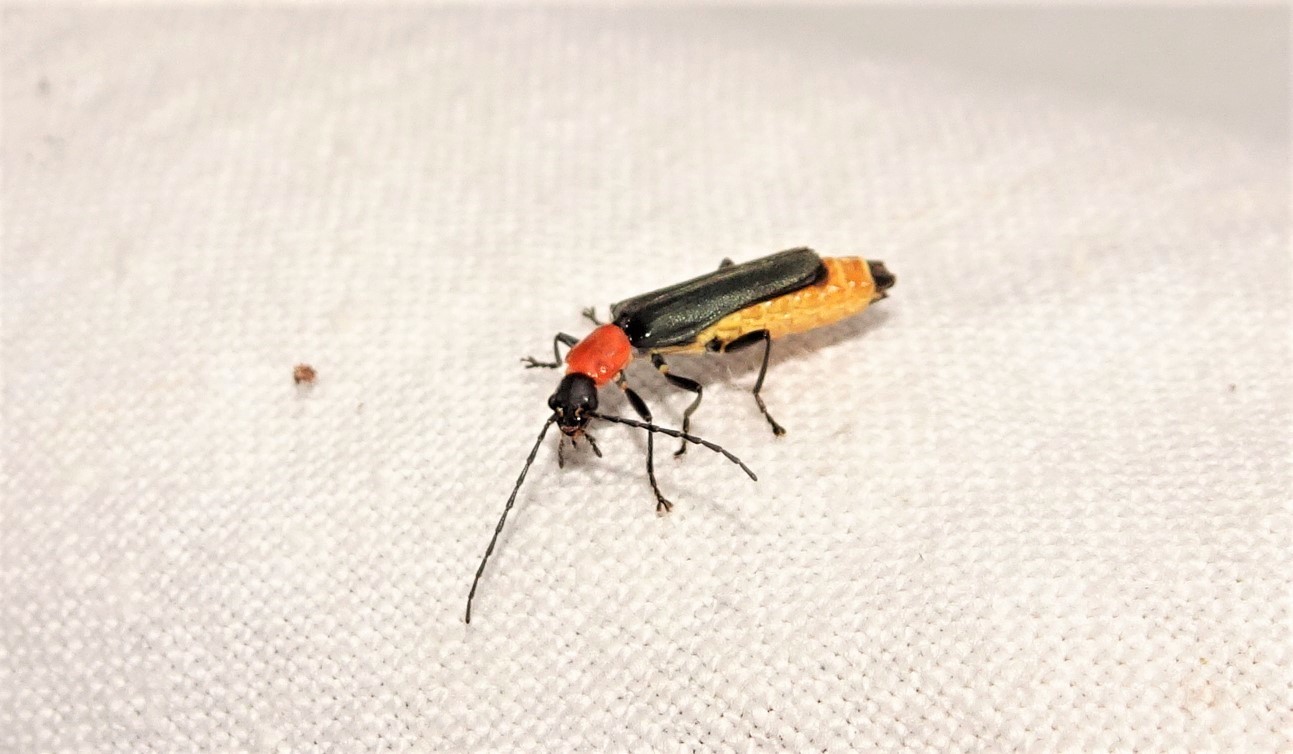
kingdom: Animalia
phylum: Arthropoda
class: Insecta
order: Coleoptera
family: Cantharidae
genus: Chauliognathus
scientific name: Chauliognathus
